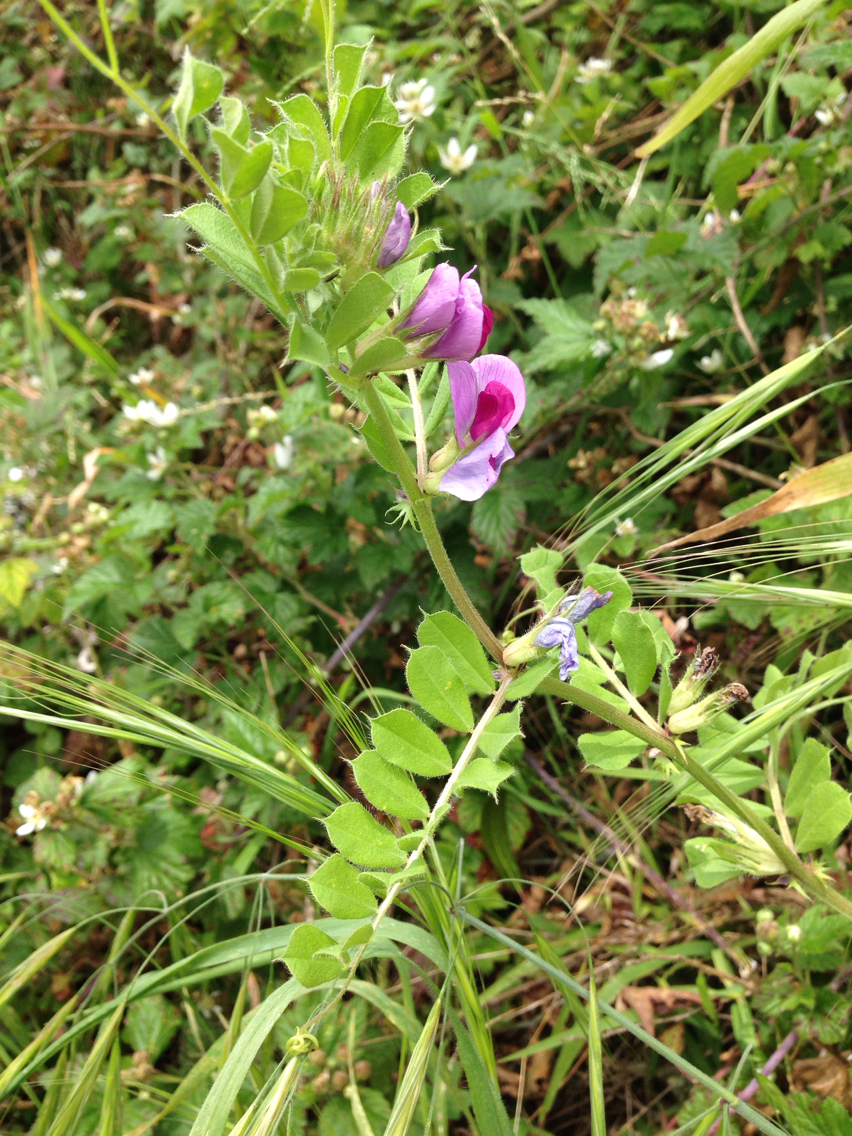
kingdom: Plantae
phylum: Tracheophyta
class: Magnoliopsida
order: Fabales
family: Fabaceae
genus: Vicia
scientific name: Vicia sativa
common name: Garden vetch
